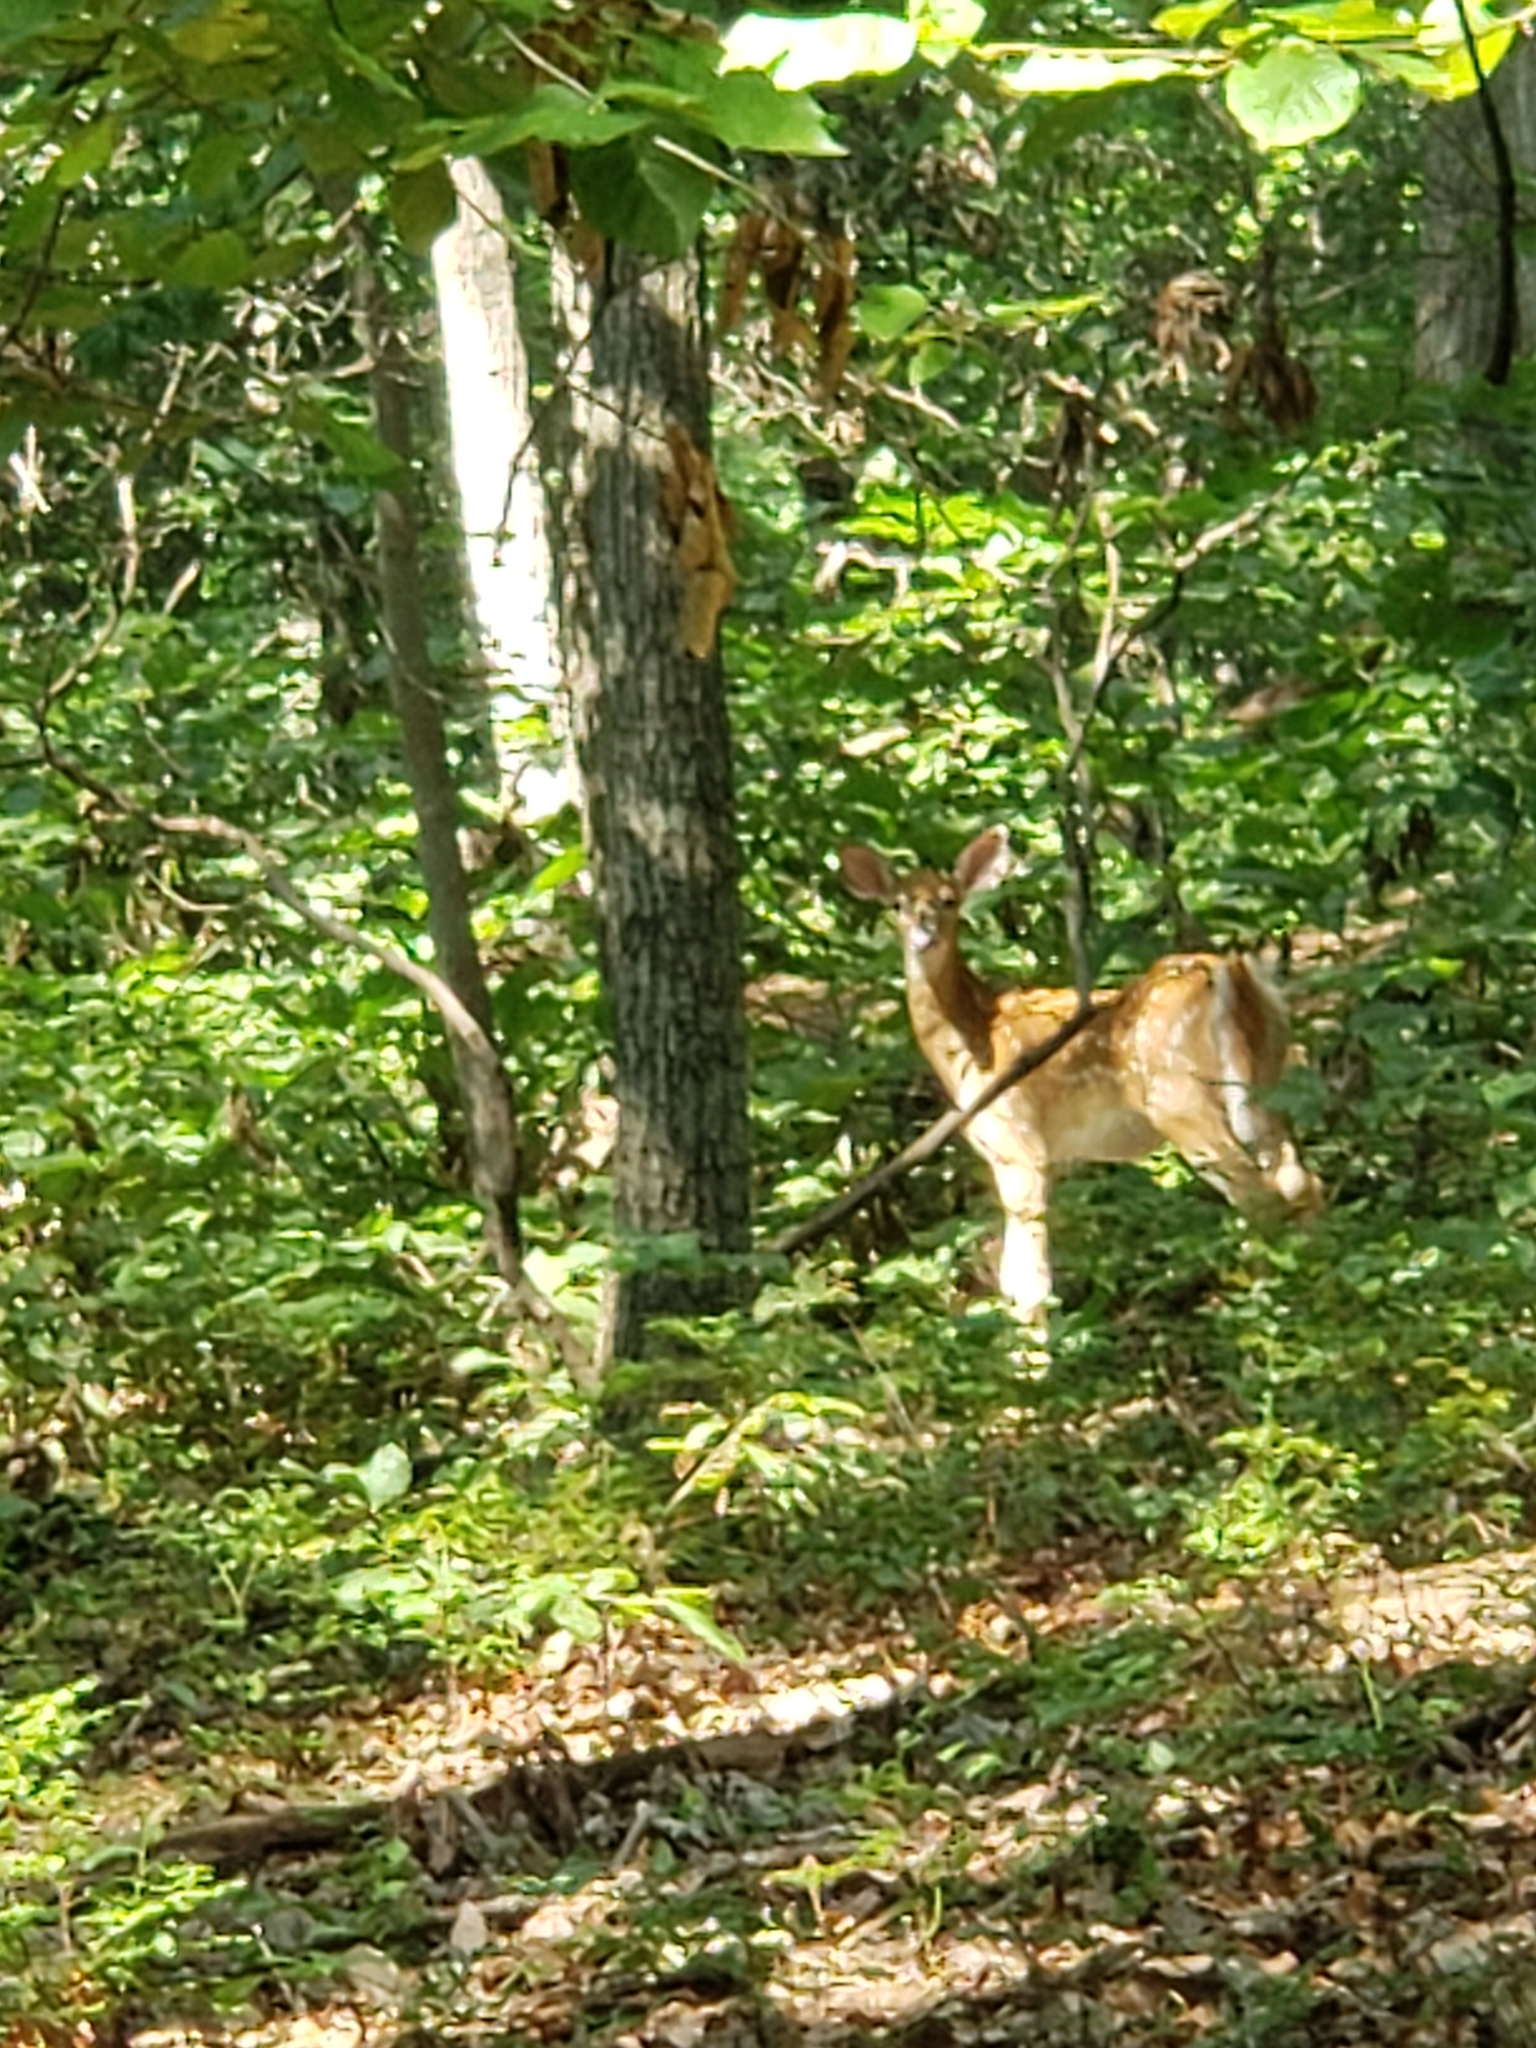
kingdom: Animalia
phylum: Chordata
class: Mammalia
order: Artiodactyla
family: Cervidae
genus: Odocoileus
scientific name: Odocoileus virginianus
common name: White-tailed deer
